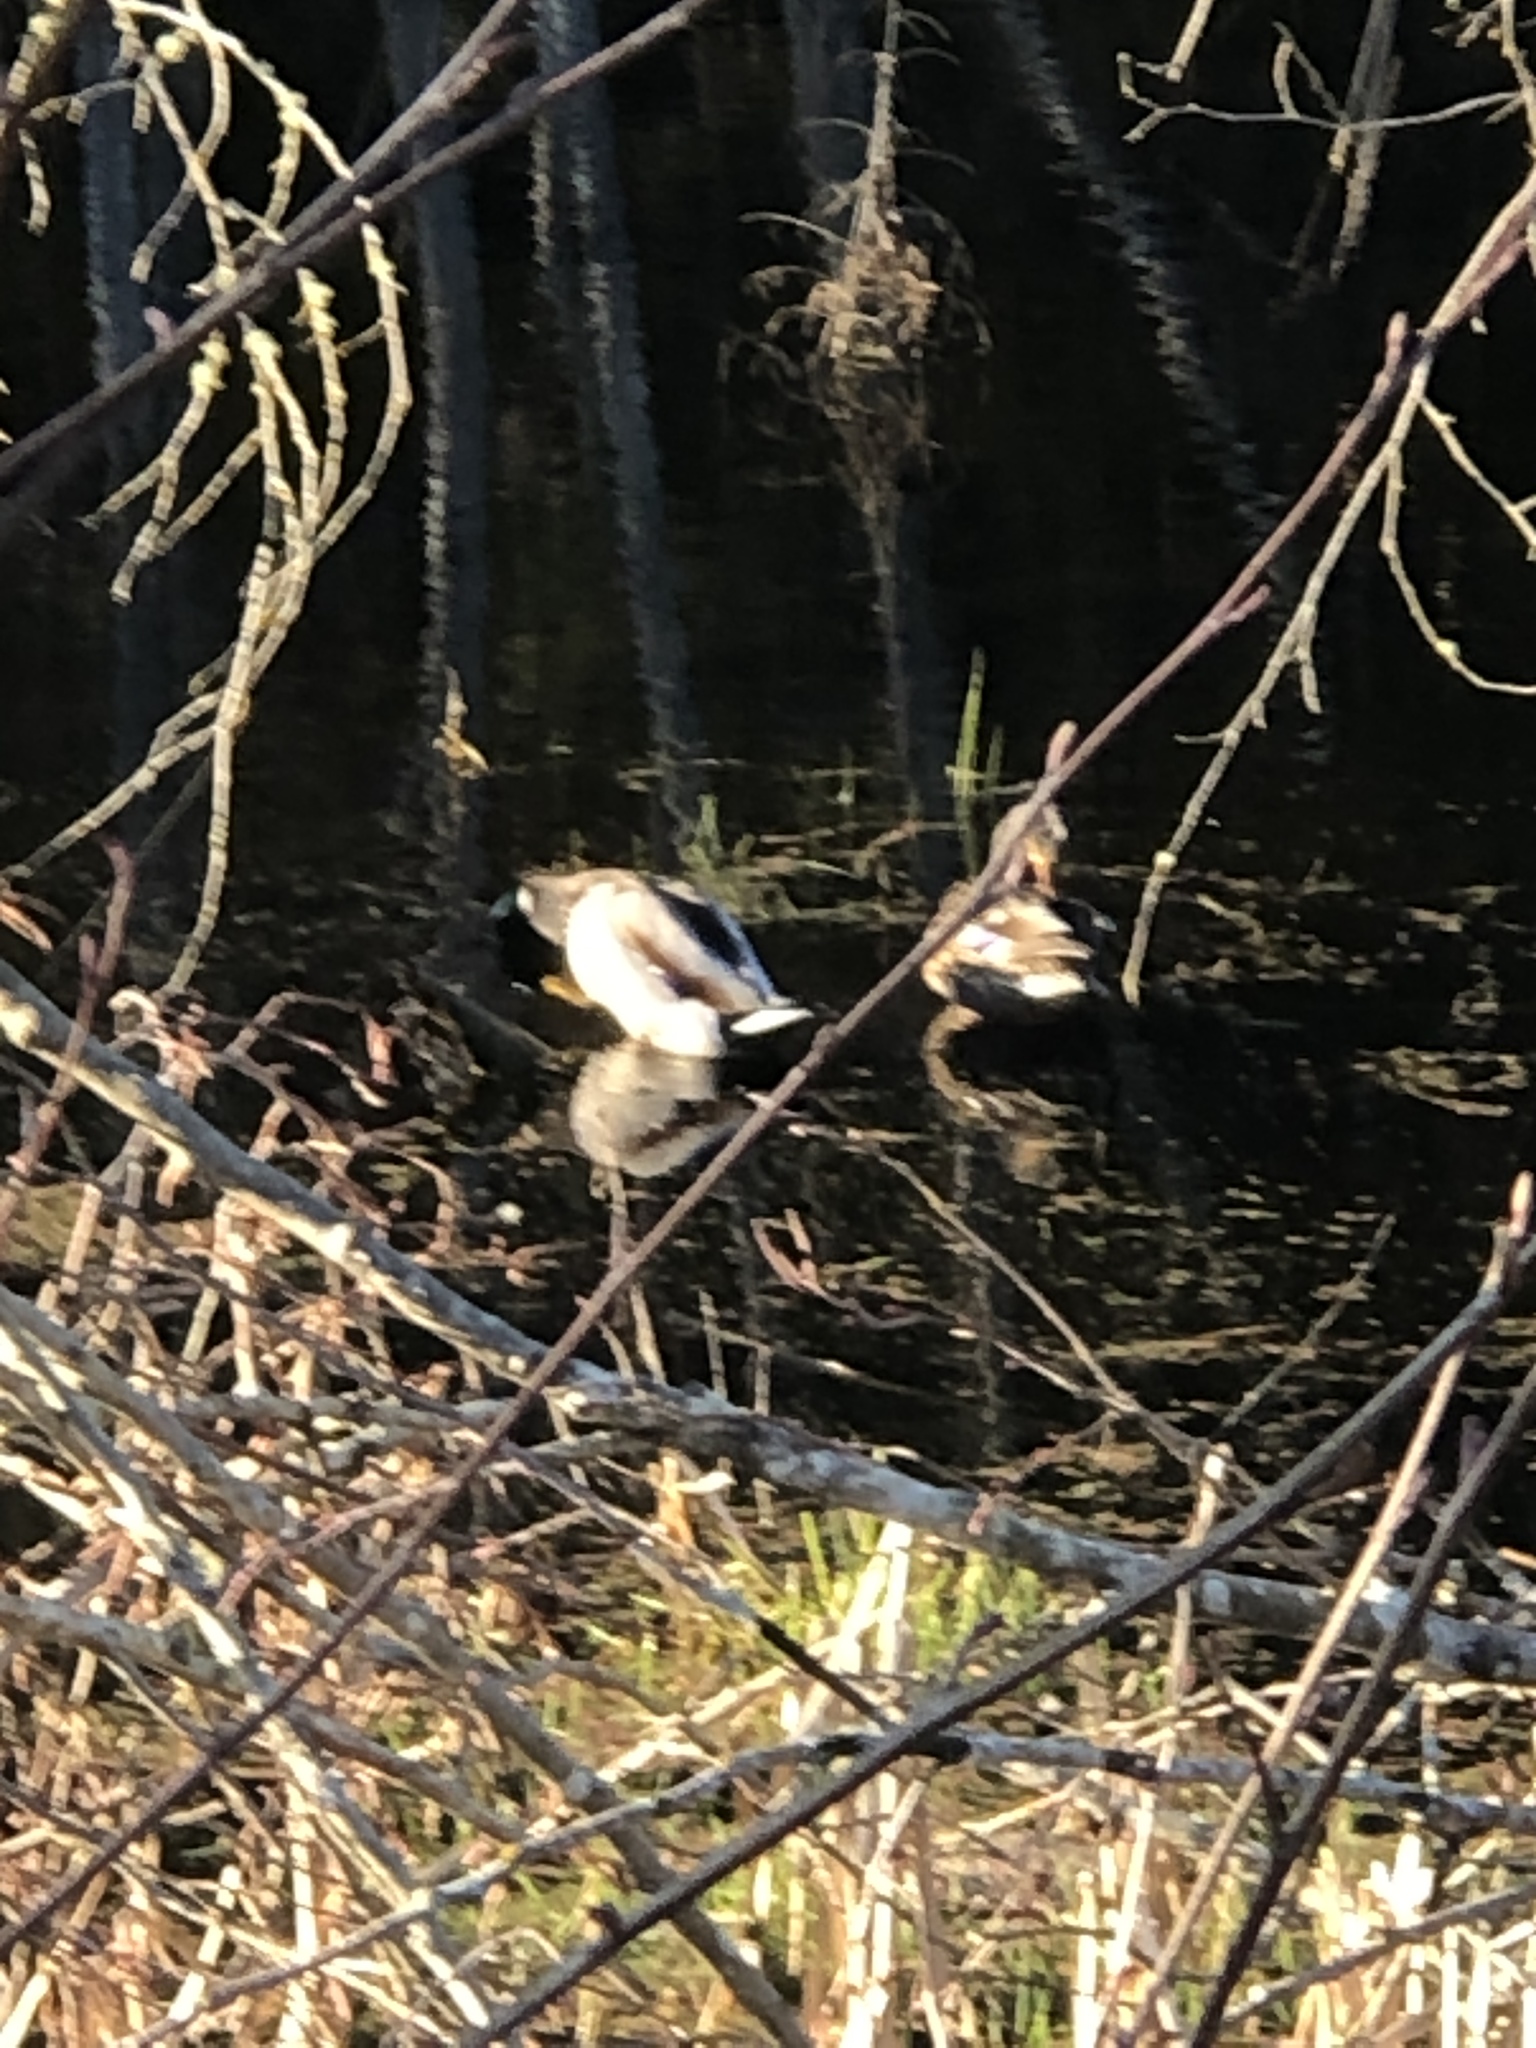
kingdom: Animalia
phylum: Chordata
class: Aves
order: Anseriformes
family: Anatidae
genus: Anas
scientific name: Anas platyrhynchos
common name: Mallard
